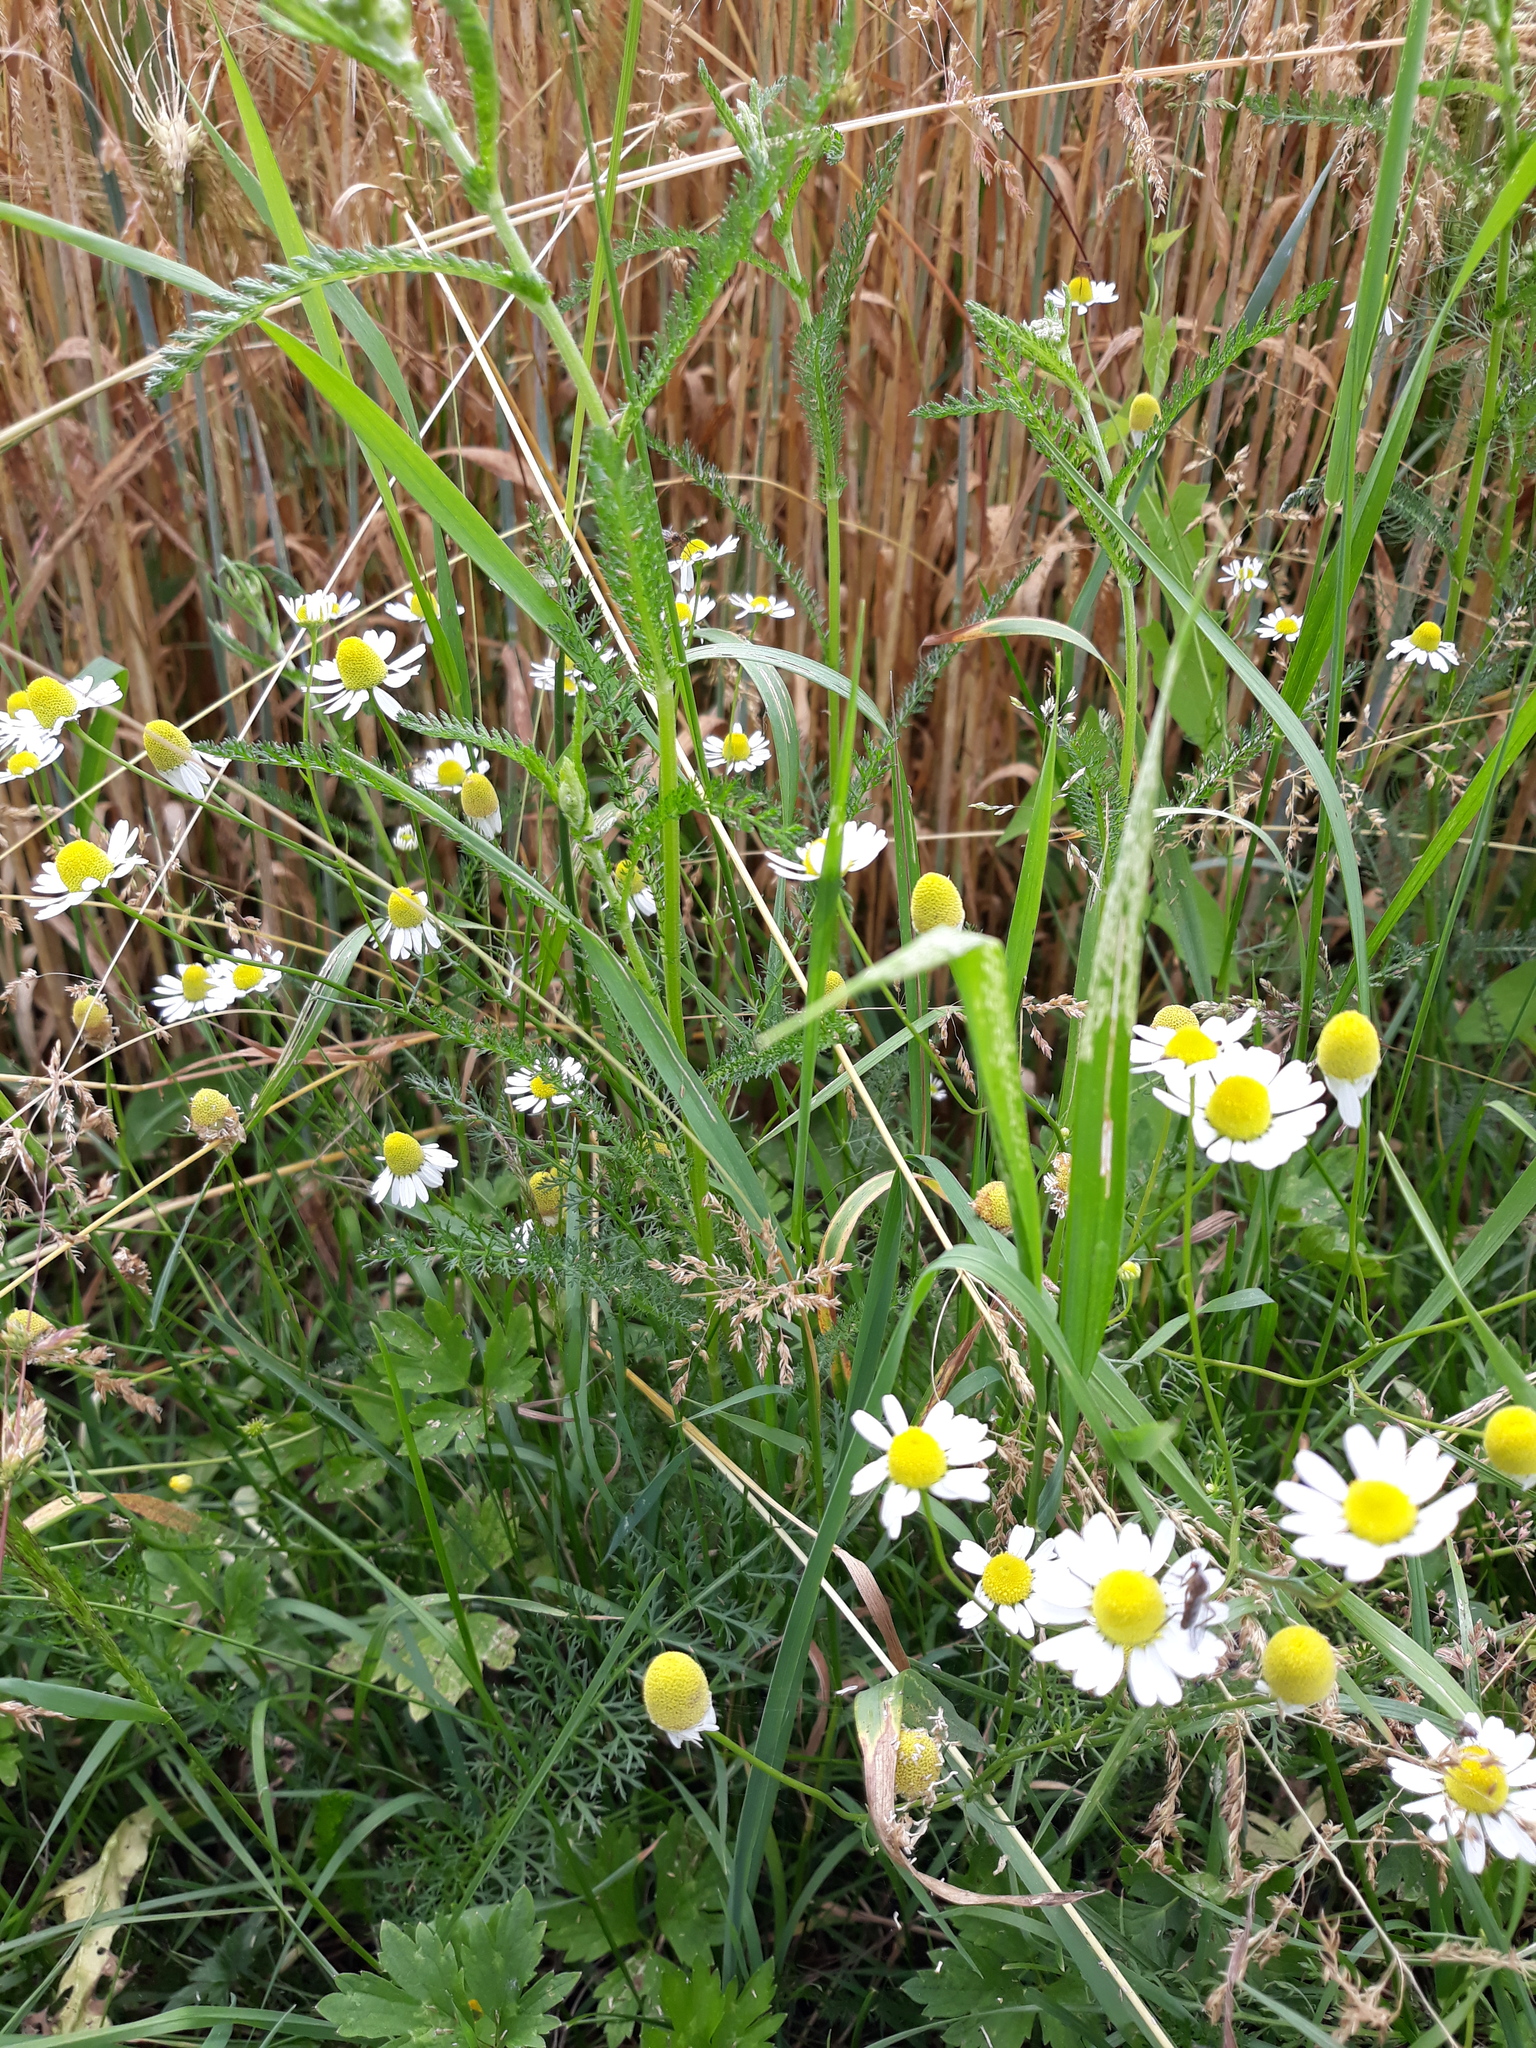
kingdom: Plantae
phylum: Tracheophyta
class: Magnoliopsida
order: Asterales
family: Asteraceae
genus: Tripleurospermum
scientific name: Tripleurospermum inodorum
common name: Scentless mayweed
